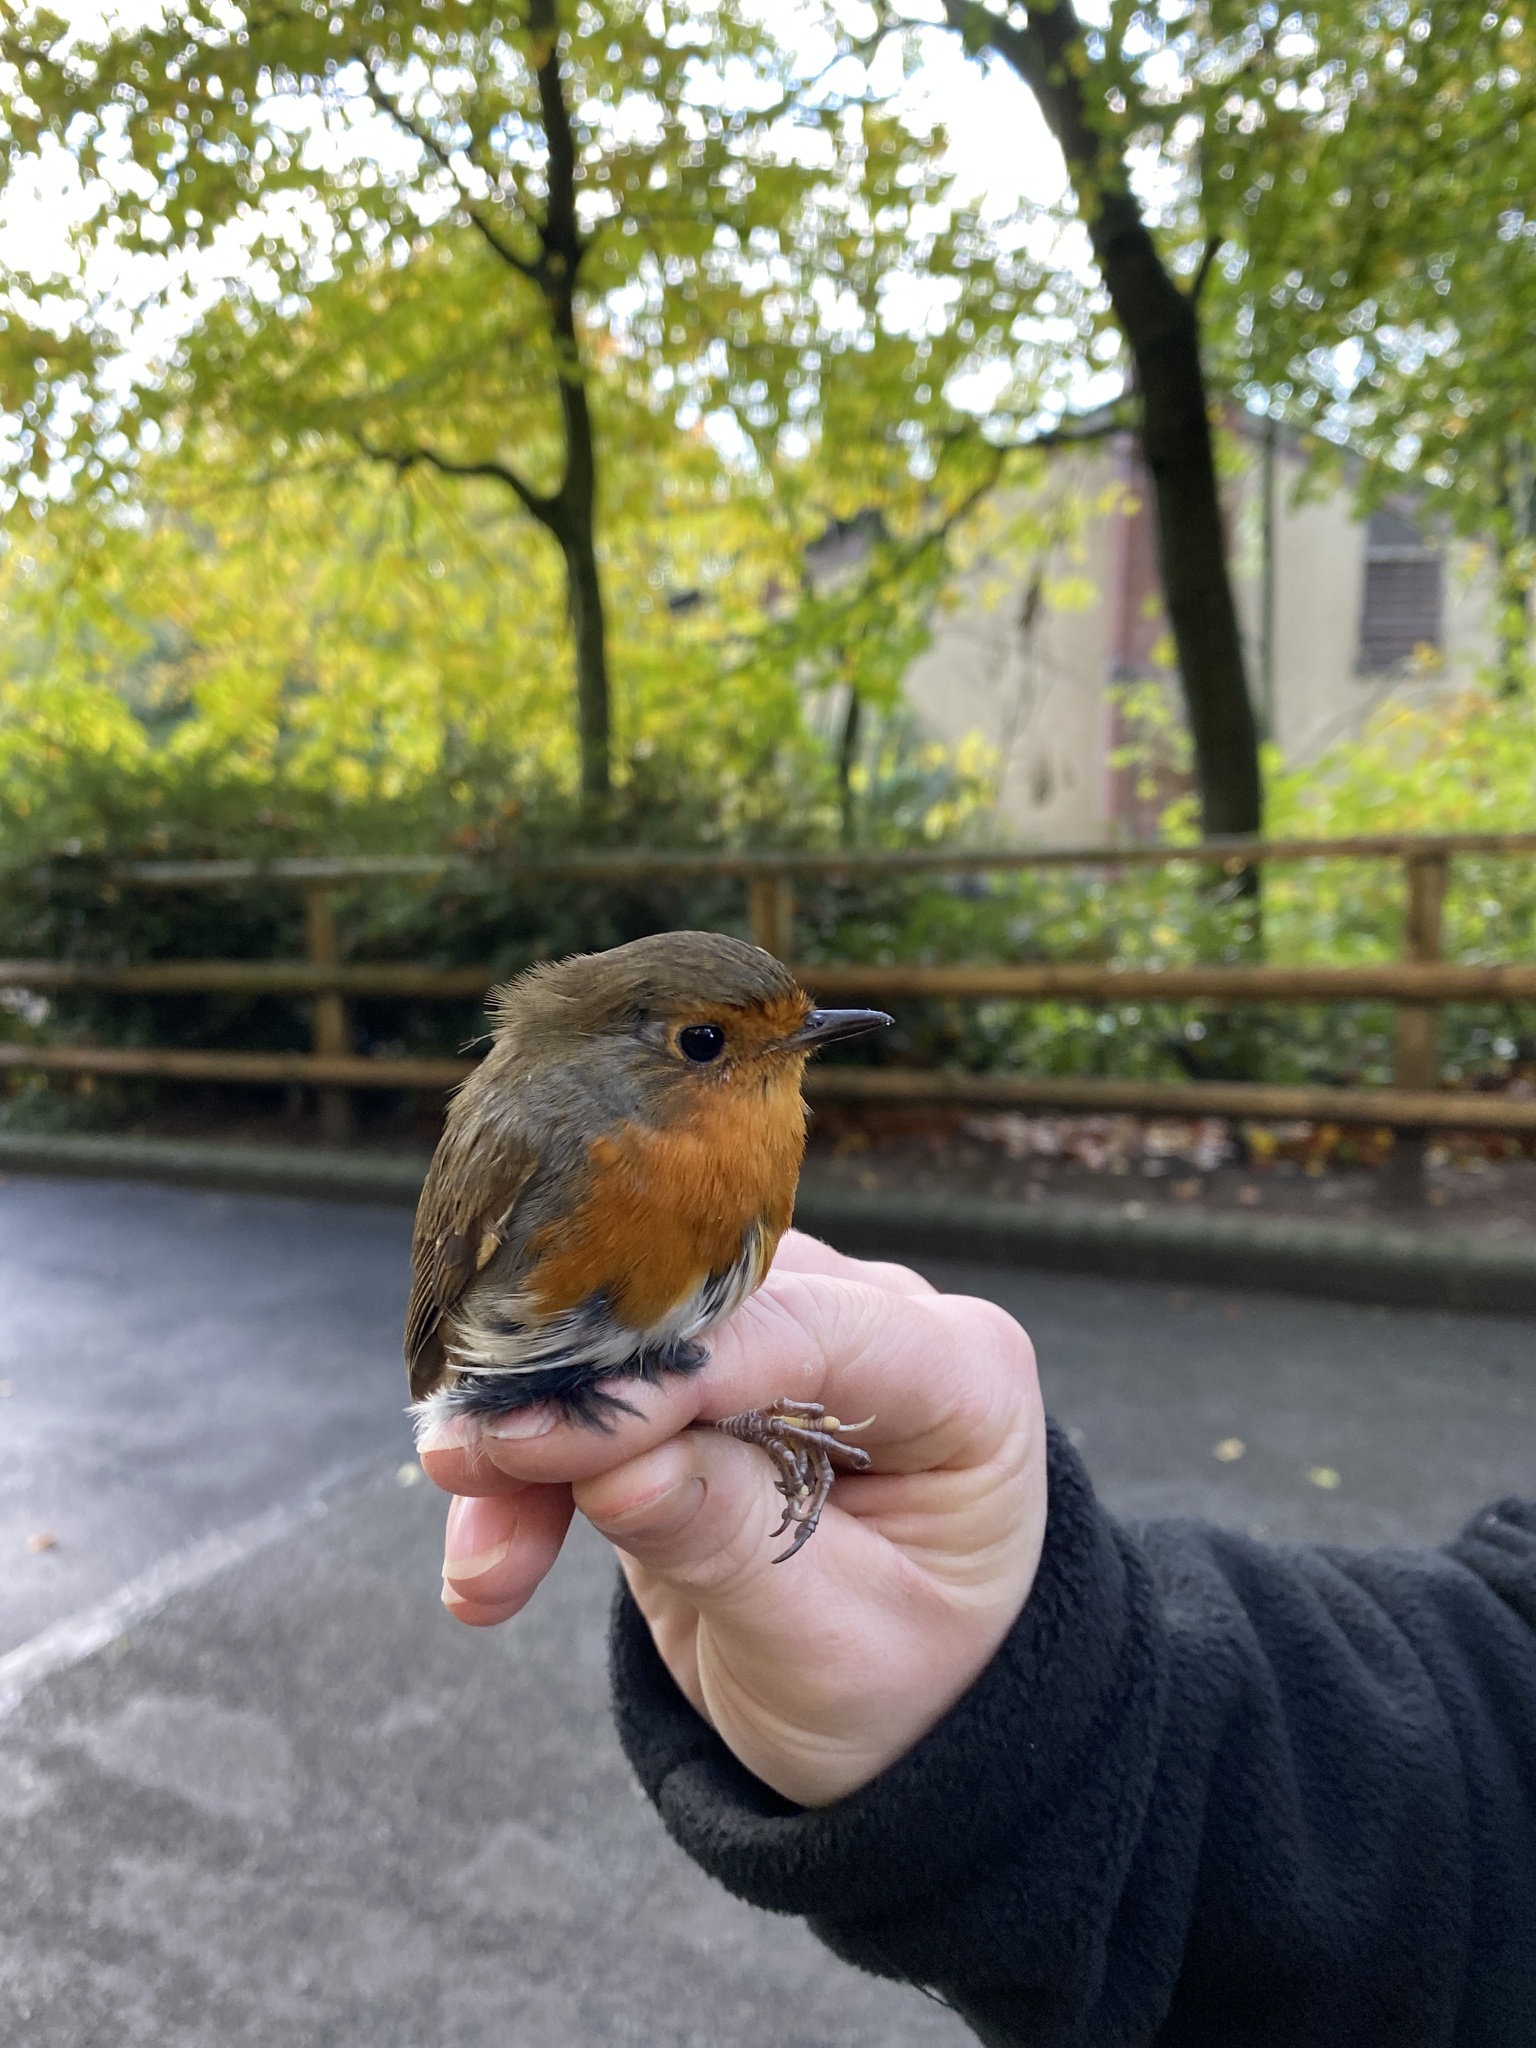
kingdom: Animalia
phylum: Chordata
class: Aves
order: Passeriformes
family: Muscicapidae
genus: Erithacus
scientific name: Erithacus rubecula
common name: European robin
